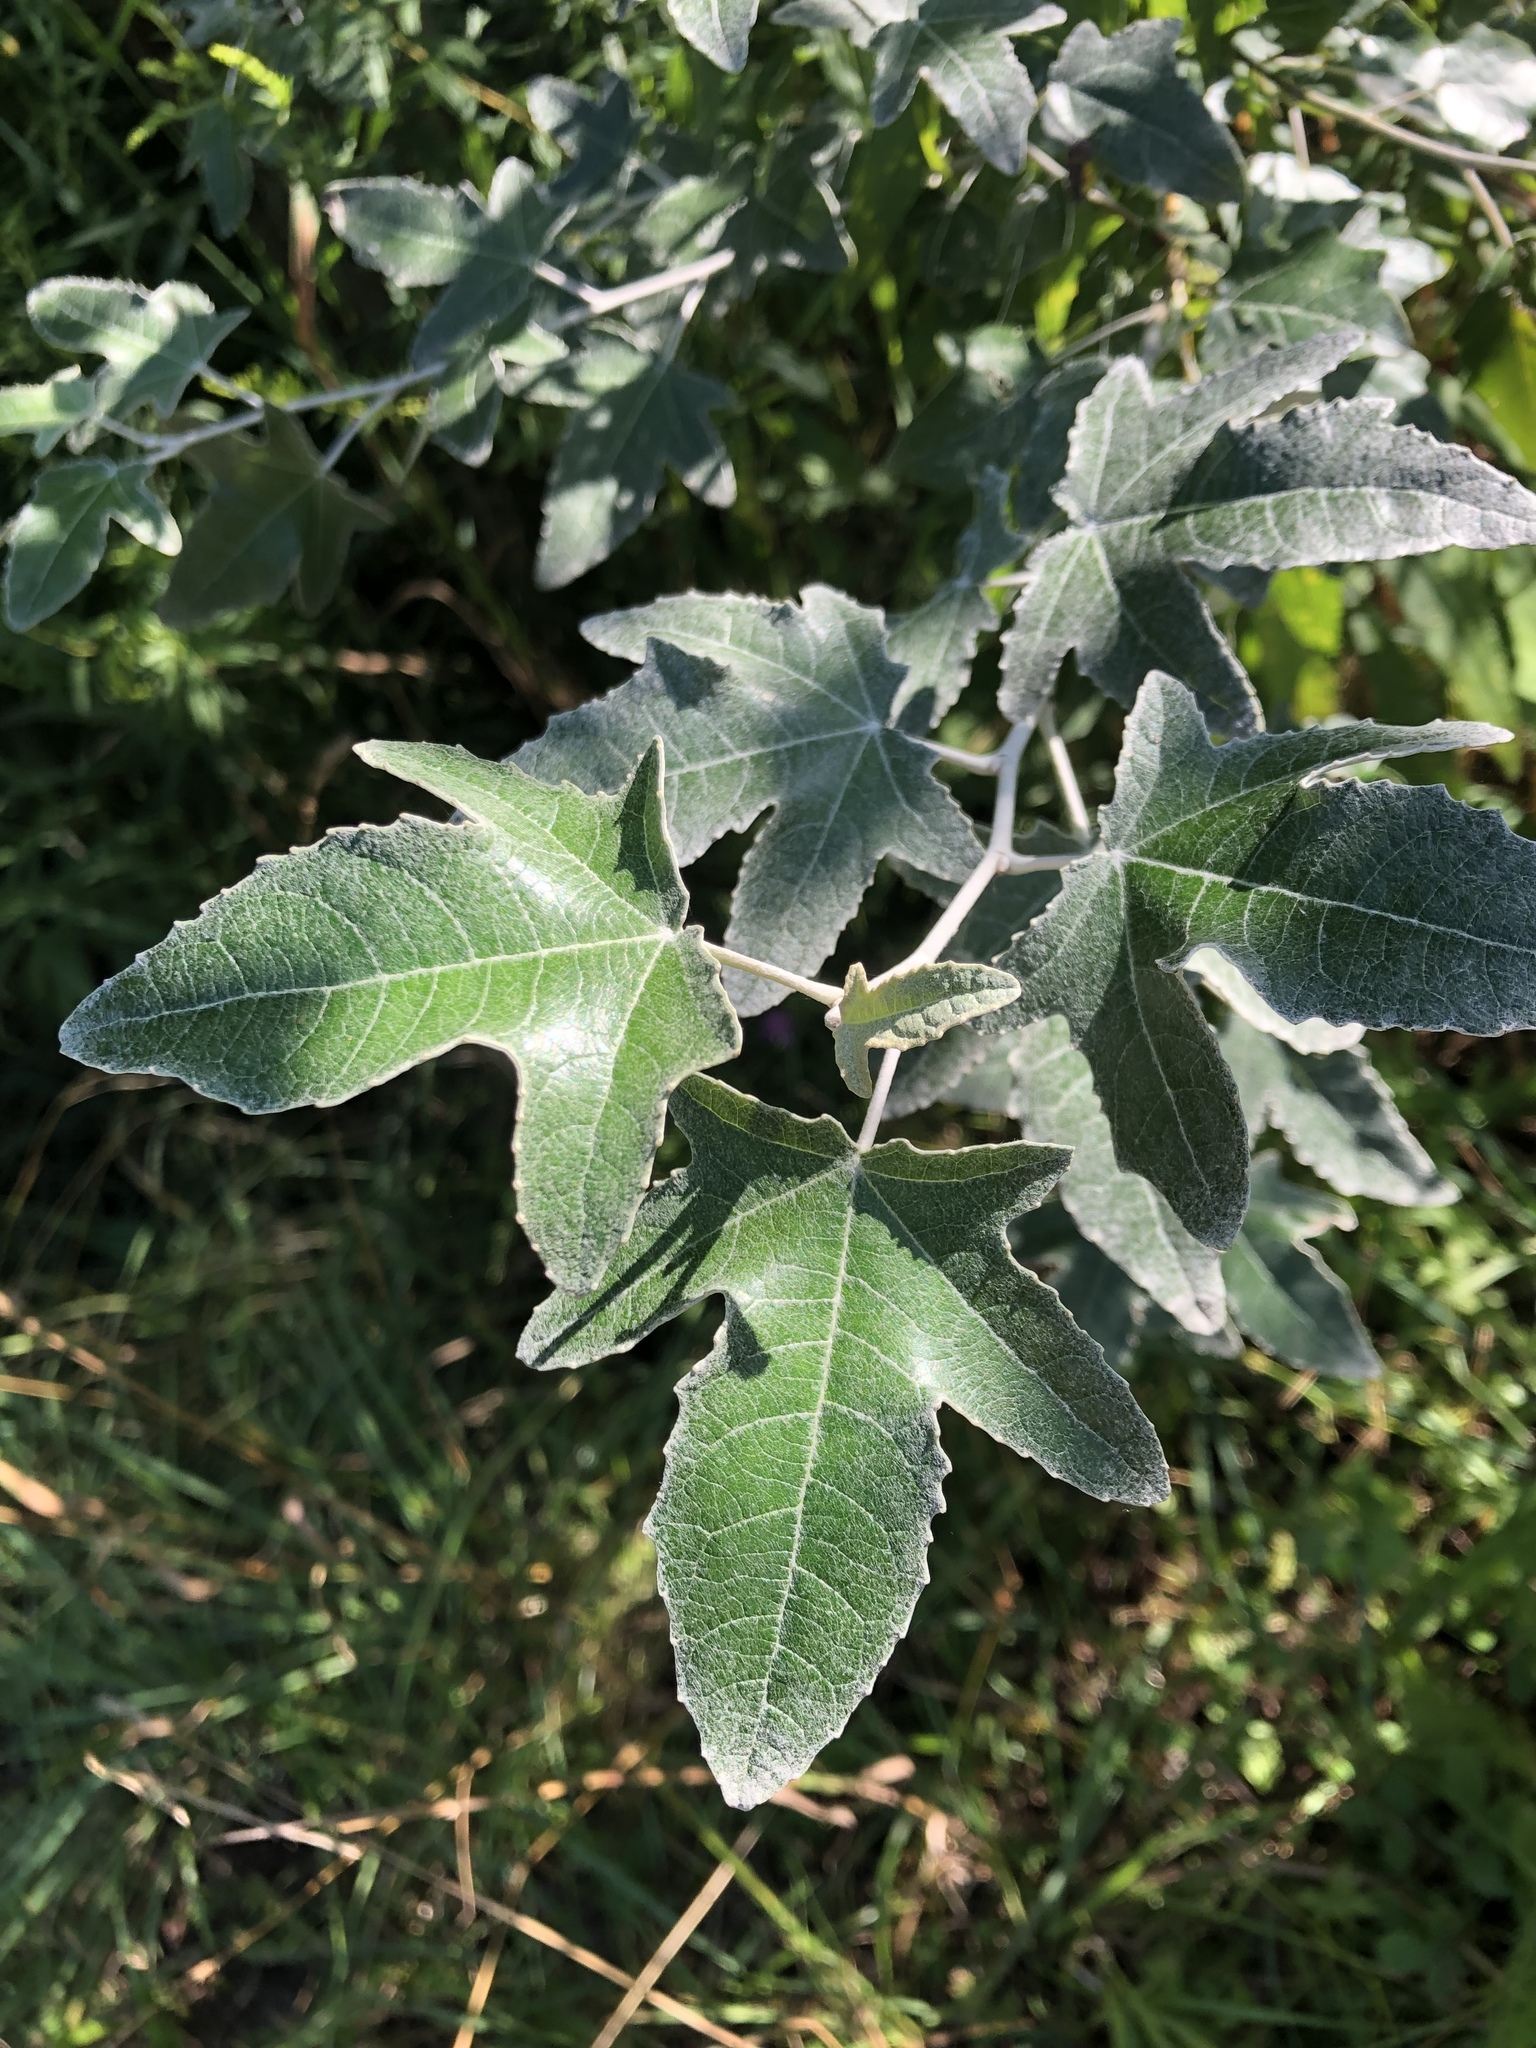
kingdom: Plantae
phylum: Tracheophyta
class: Magnoliopsida
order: Malpighiales
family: Salicaceae
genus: Populus
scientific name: Populus alba
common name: White poplar
